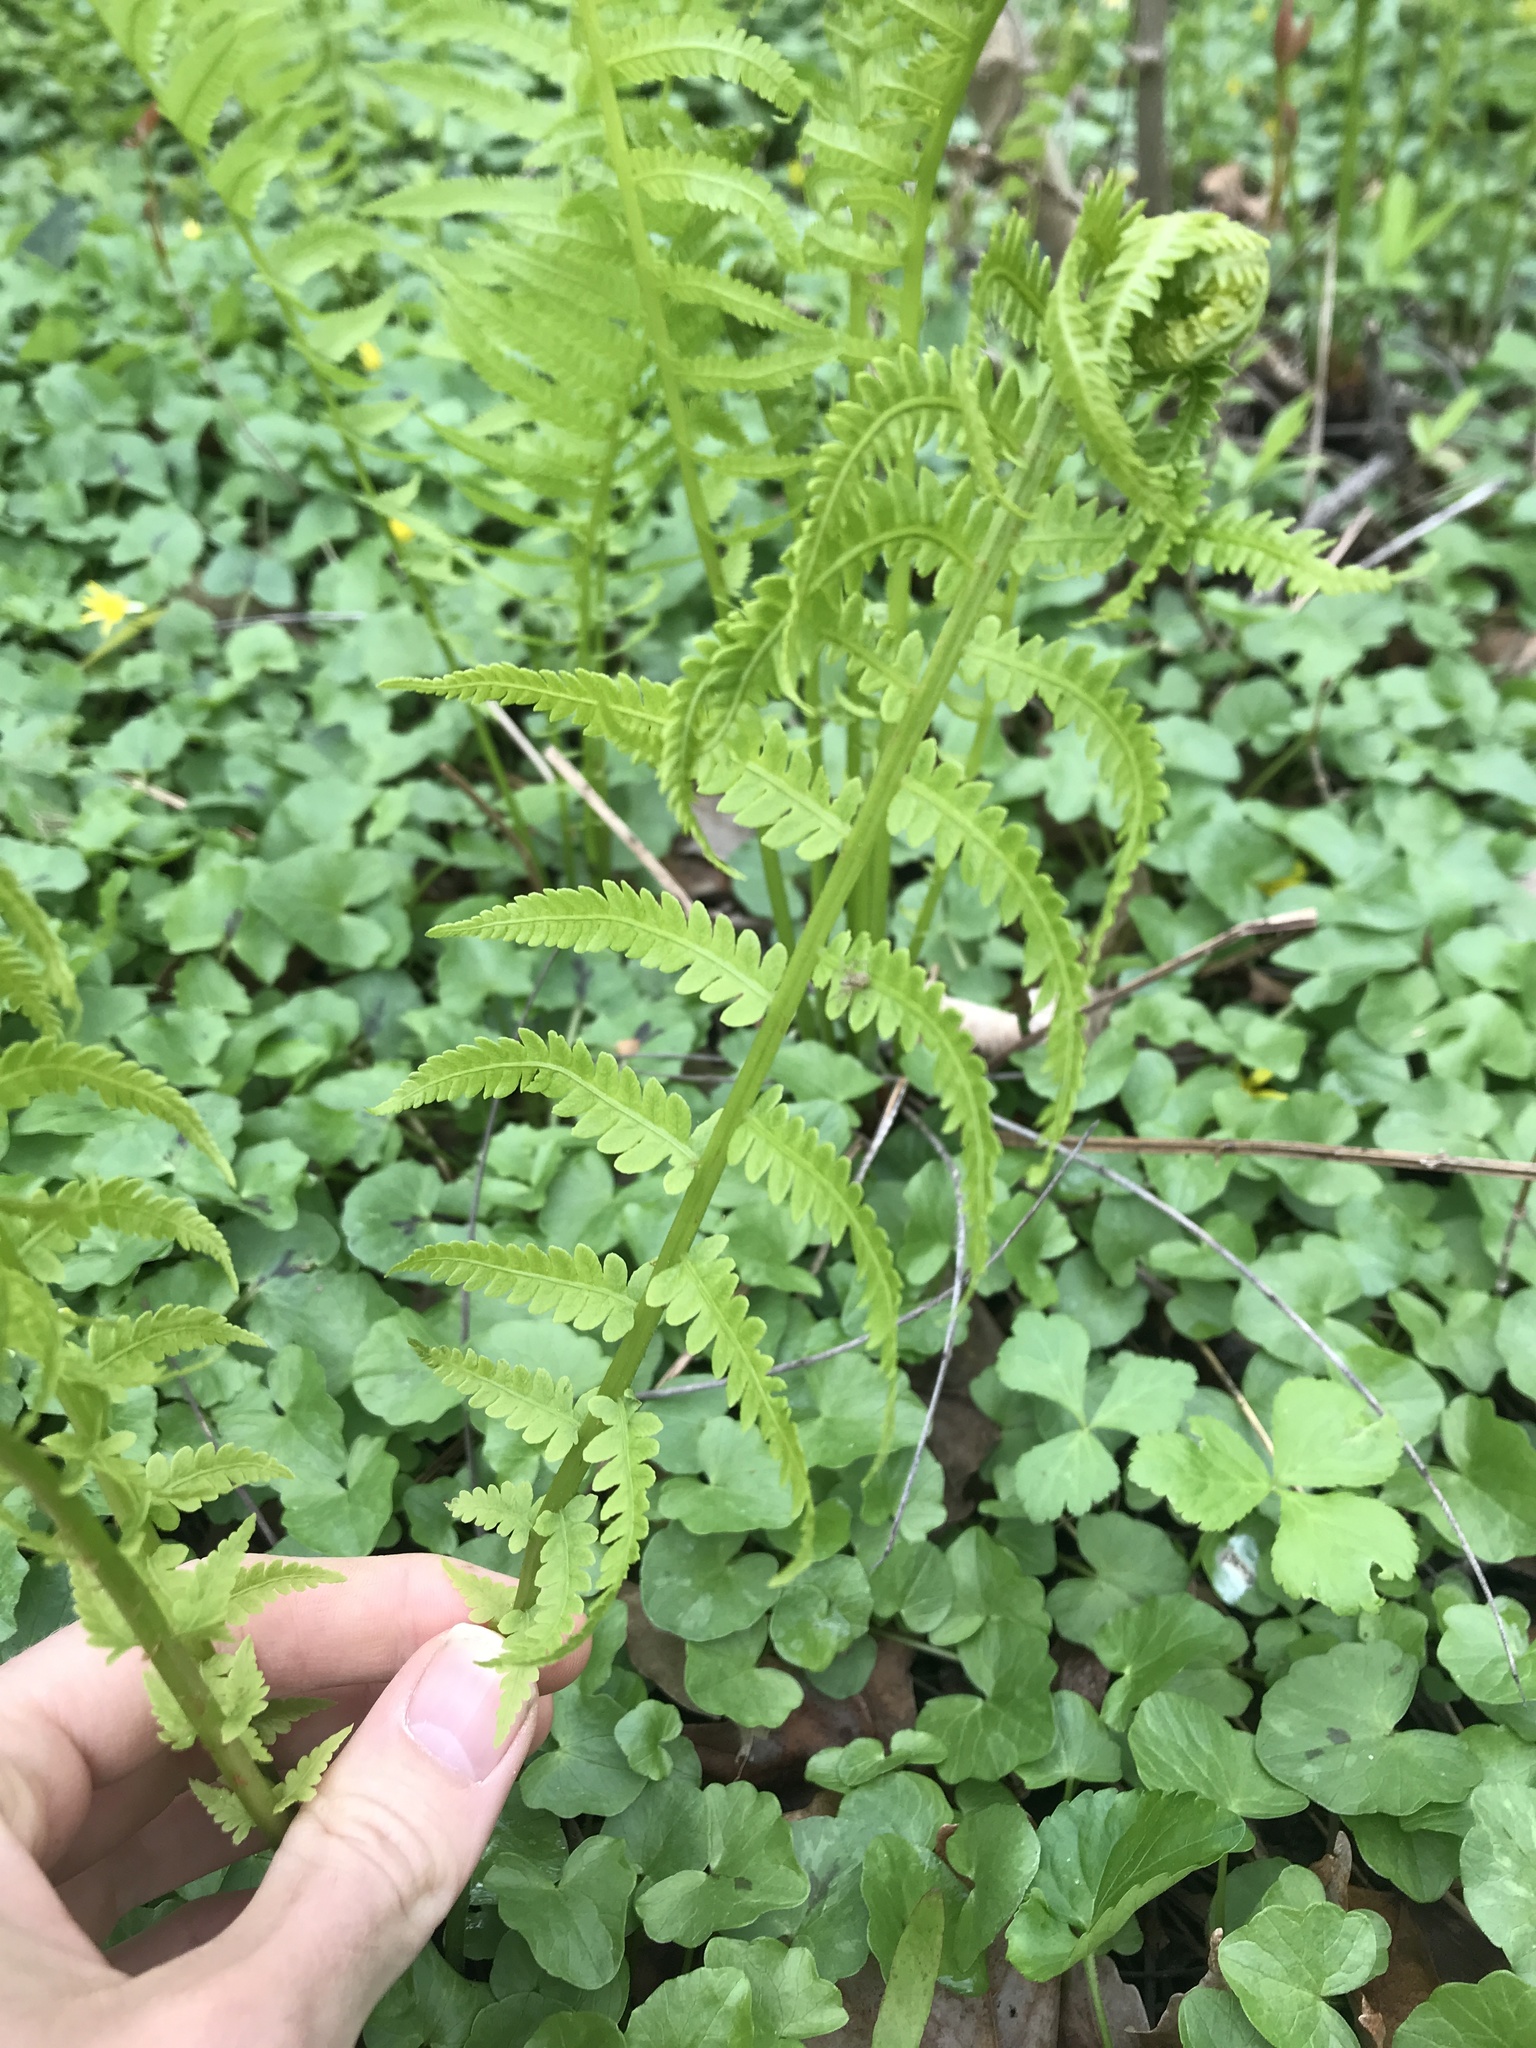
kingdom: Plantae
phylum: Tracheophyta
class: Polypodiopsida
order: Polypodiales
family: Onocleaceae
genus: Matteuccia
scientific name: Matteuccia struthiopteris
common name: Ostrich fern
